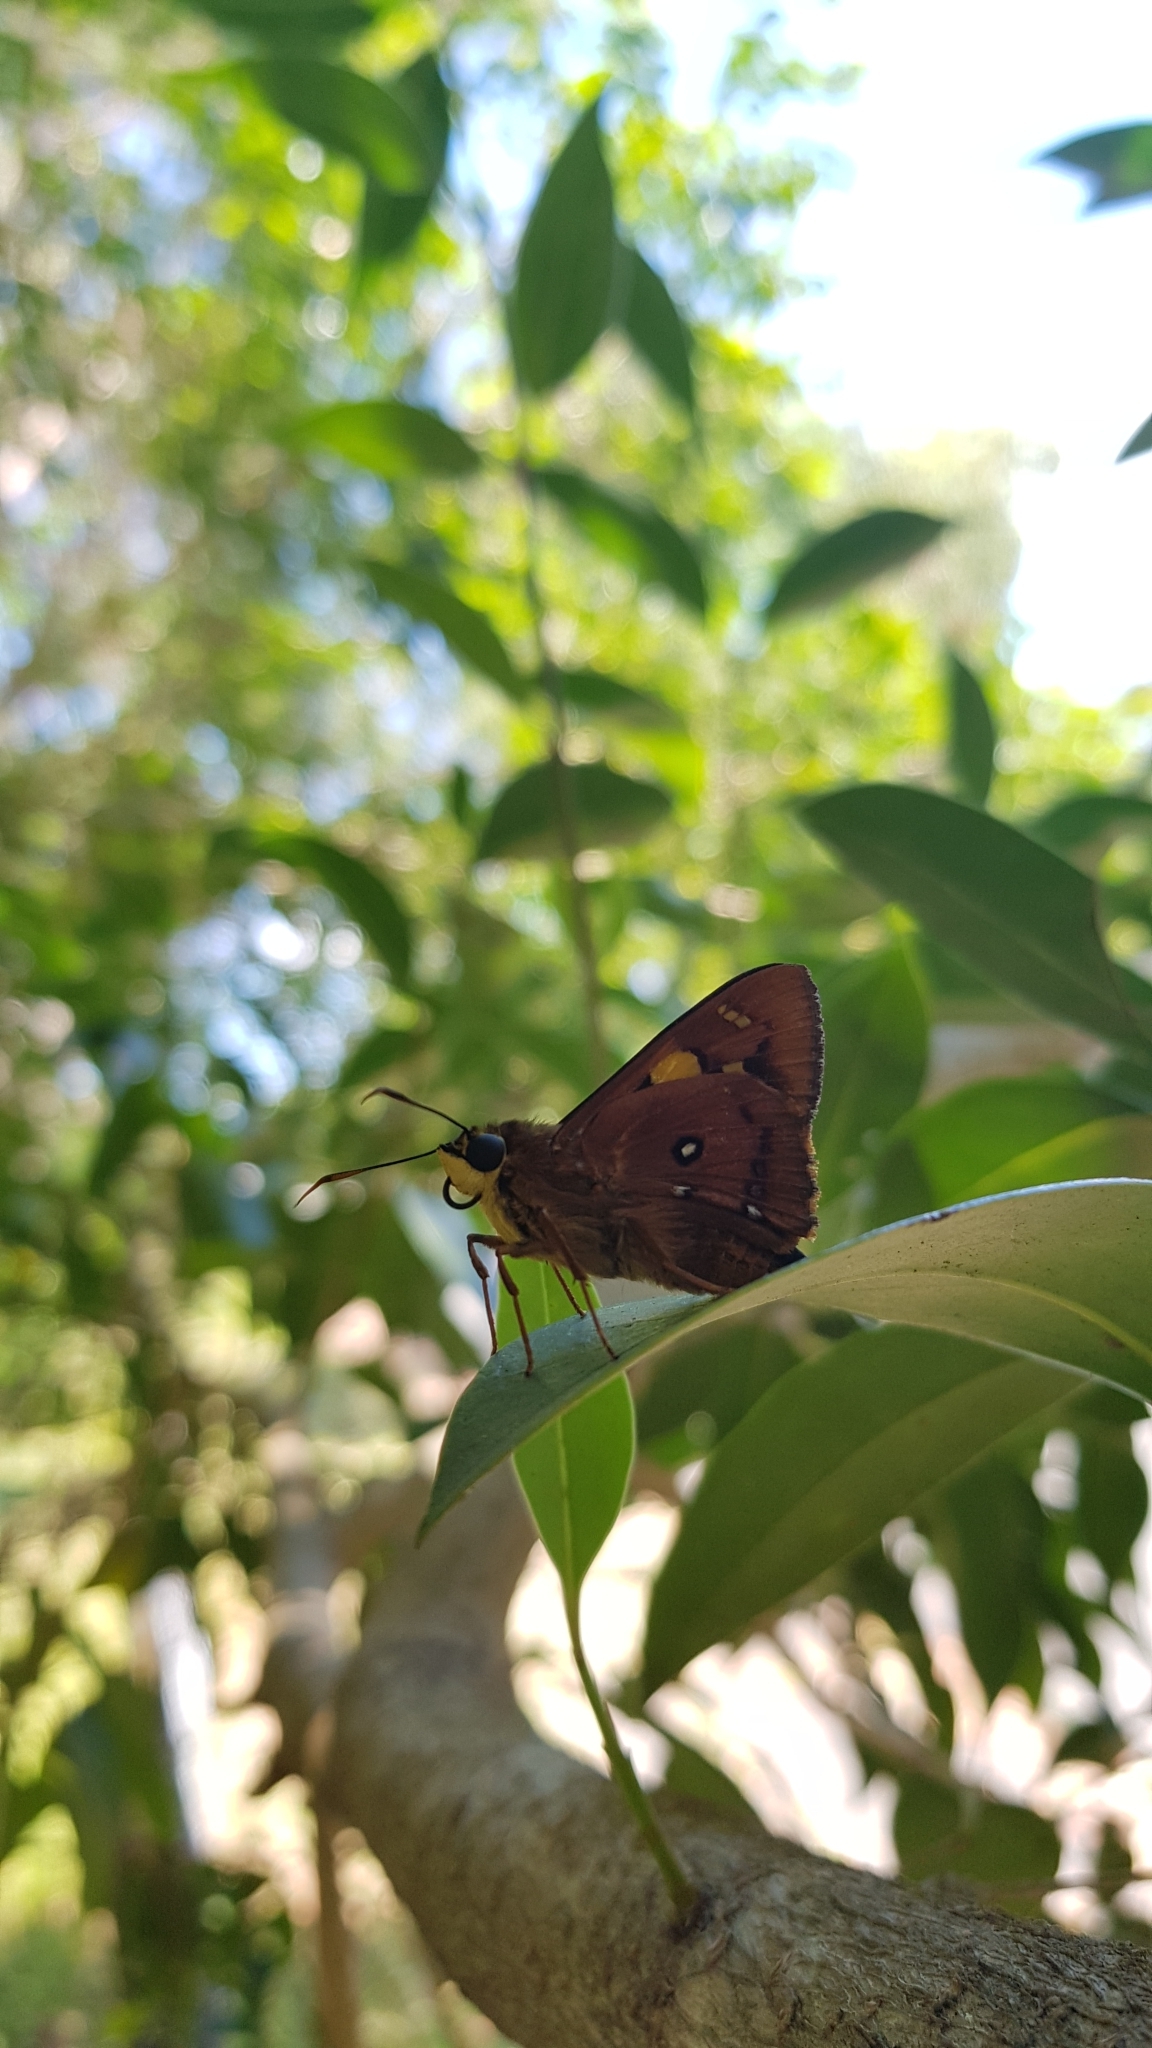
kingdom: Animalia
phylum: Arthropoda
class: Insecta
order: Lepidoptera
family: Hesperiidae
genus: Trapezites
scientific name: Trapezites symmomus
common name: Splendid ochre
